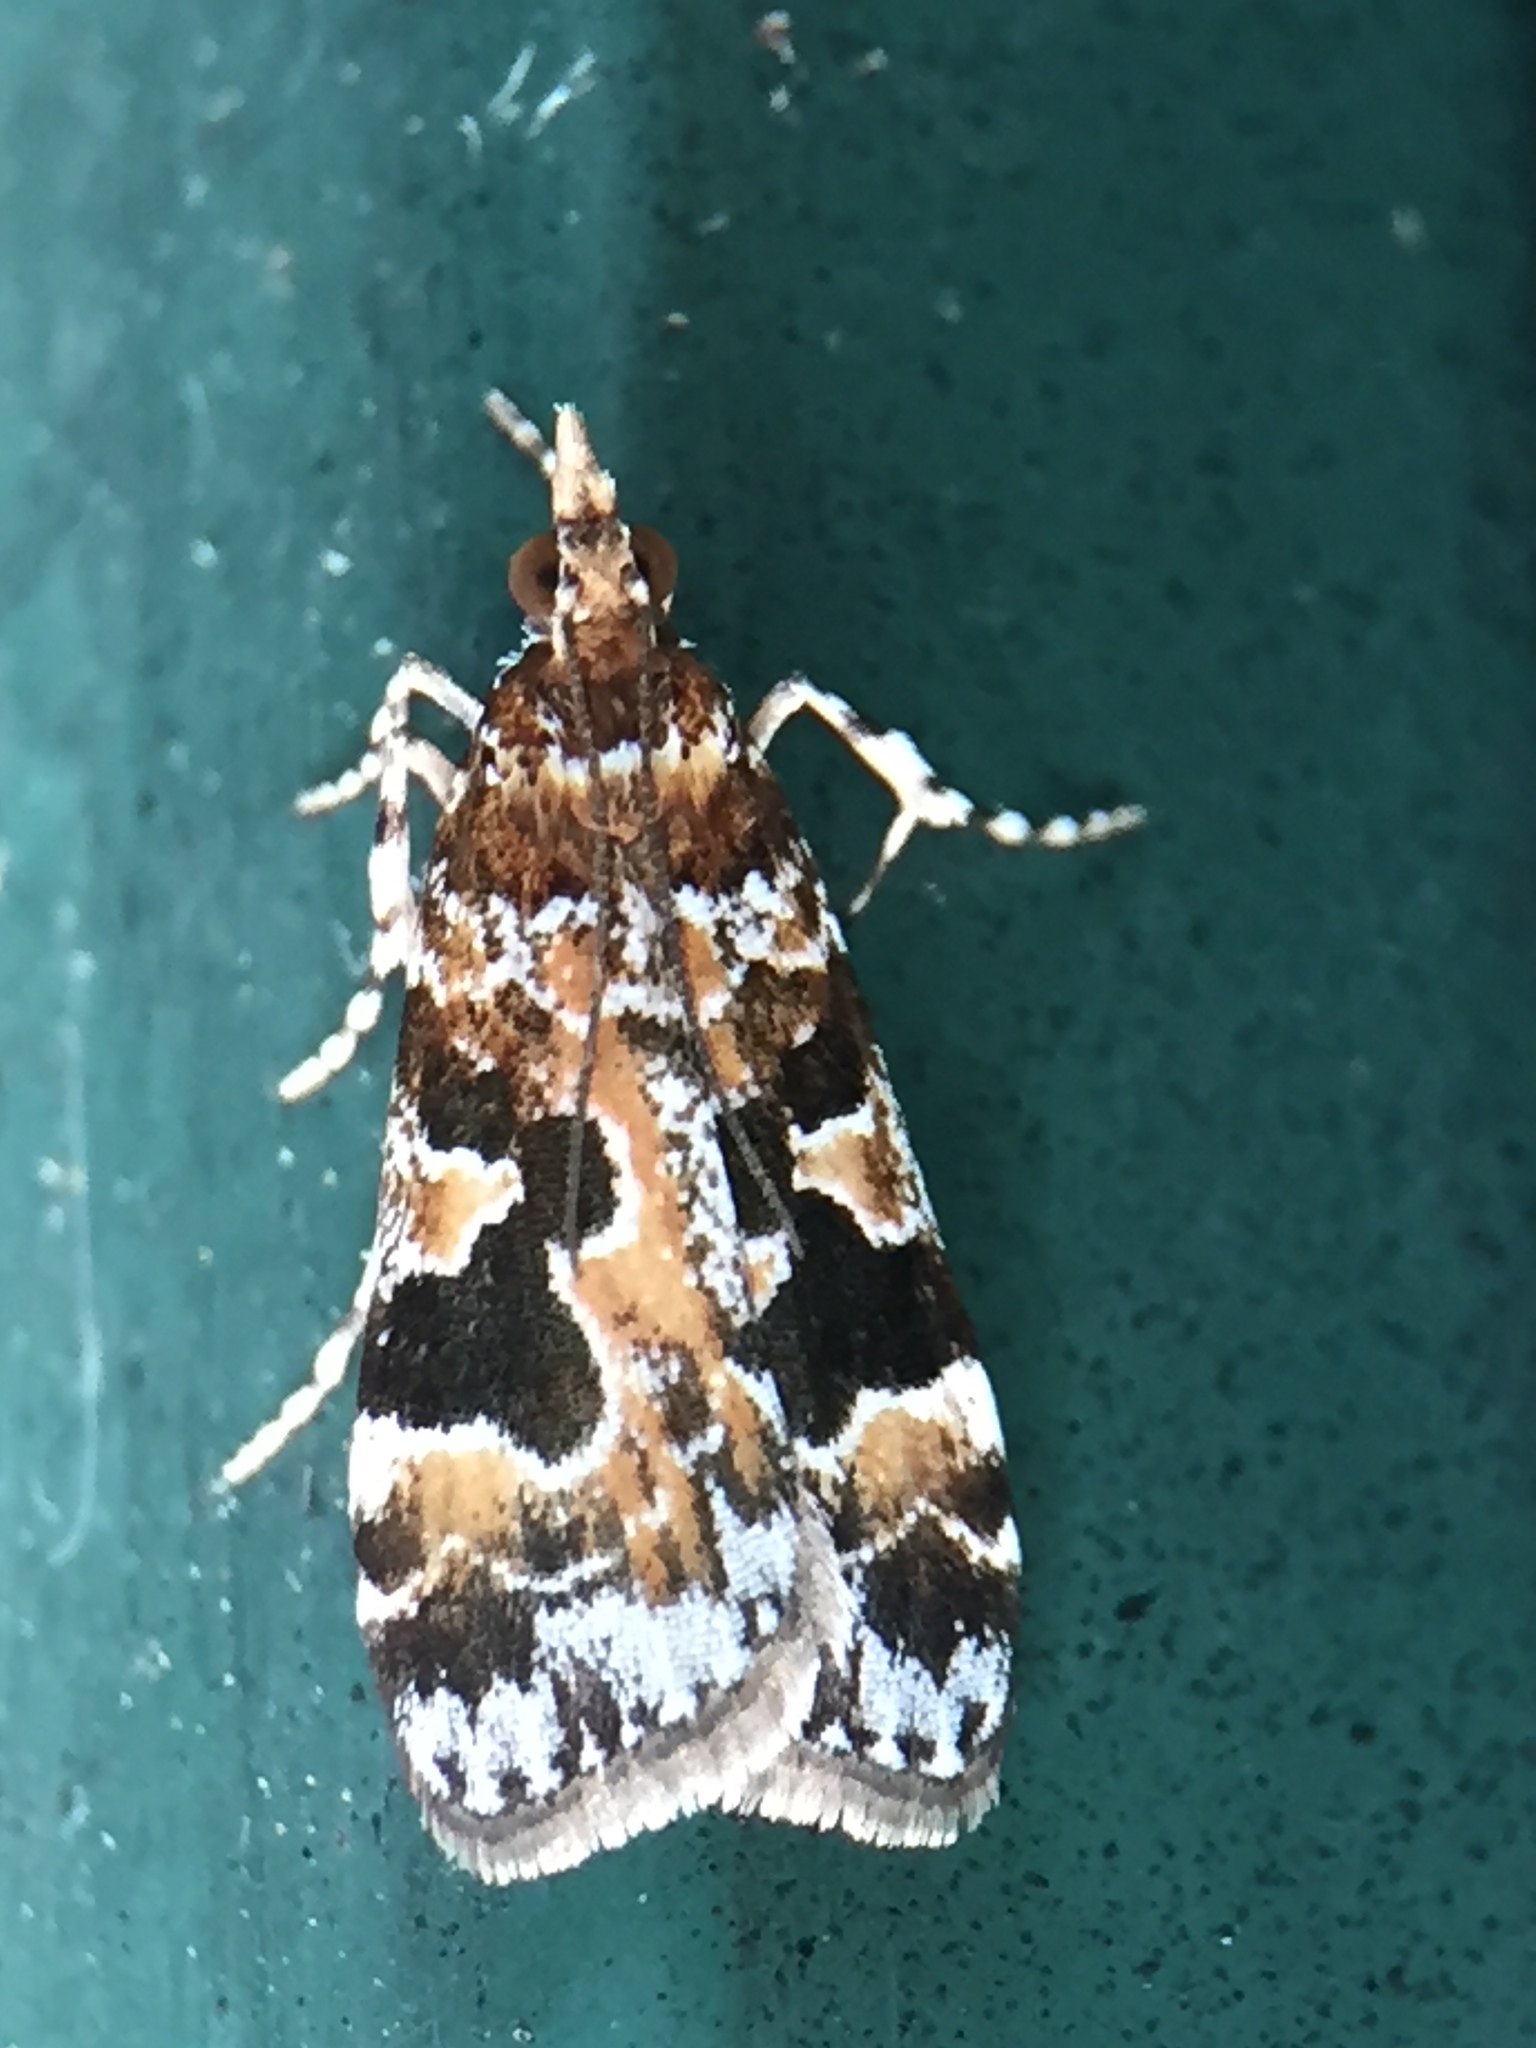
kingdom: Animalia
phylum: Arthropoda
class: Insecta
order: Lepidoptera
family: Crambidae
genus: Scoparia
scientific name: Scoparia ustimacula
